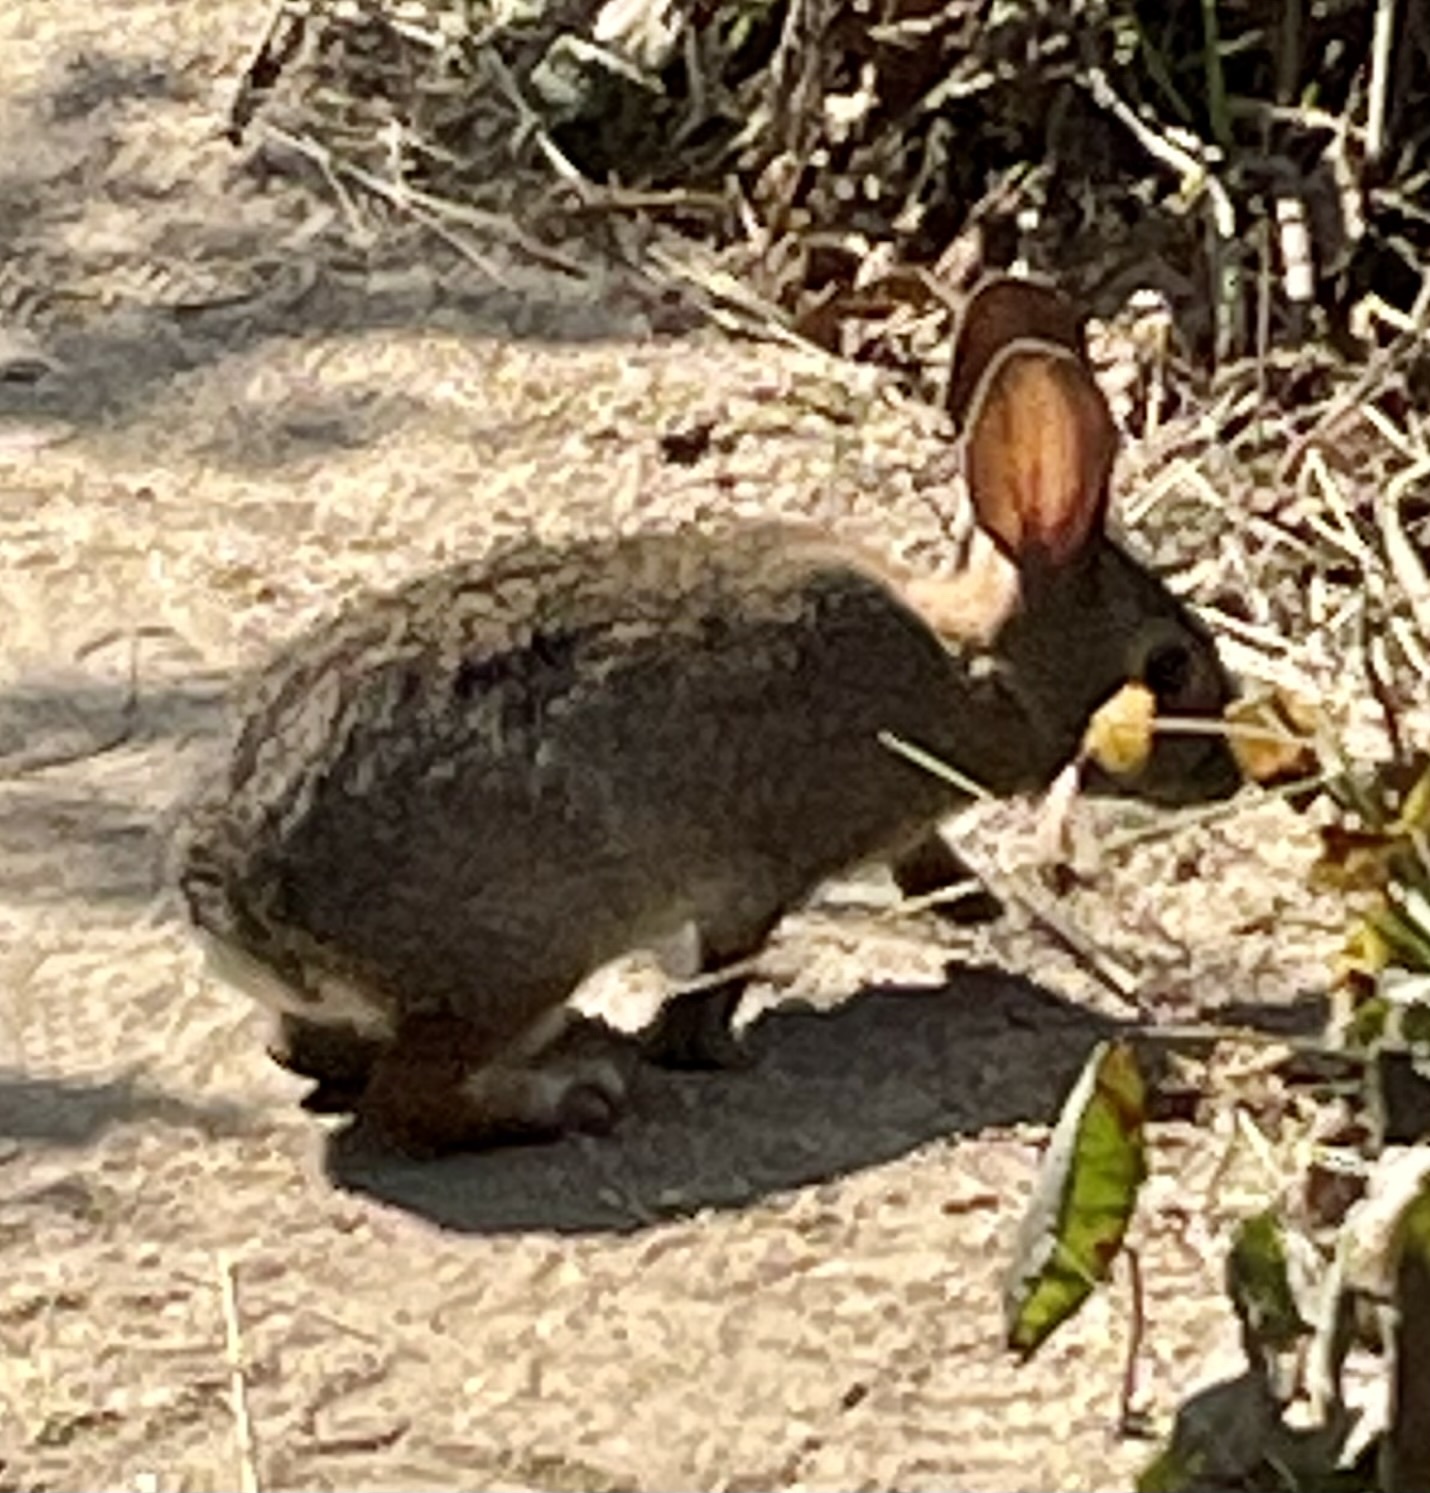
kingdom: Animalia
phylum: Chordata
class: Mammalia
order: Lagomorpha
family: Leporidae
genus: Sylvilagus
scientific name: Sylvilagus bachmani
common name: Brush rabbit
